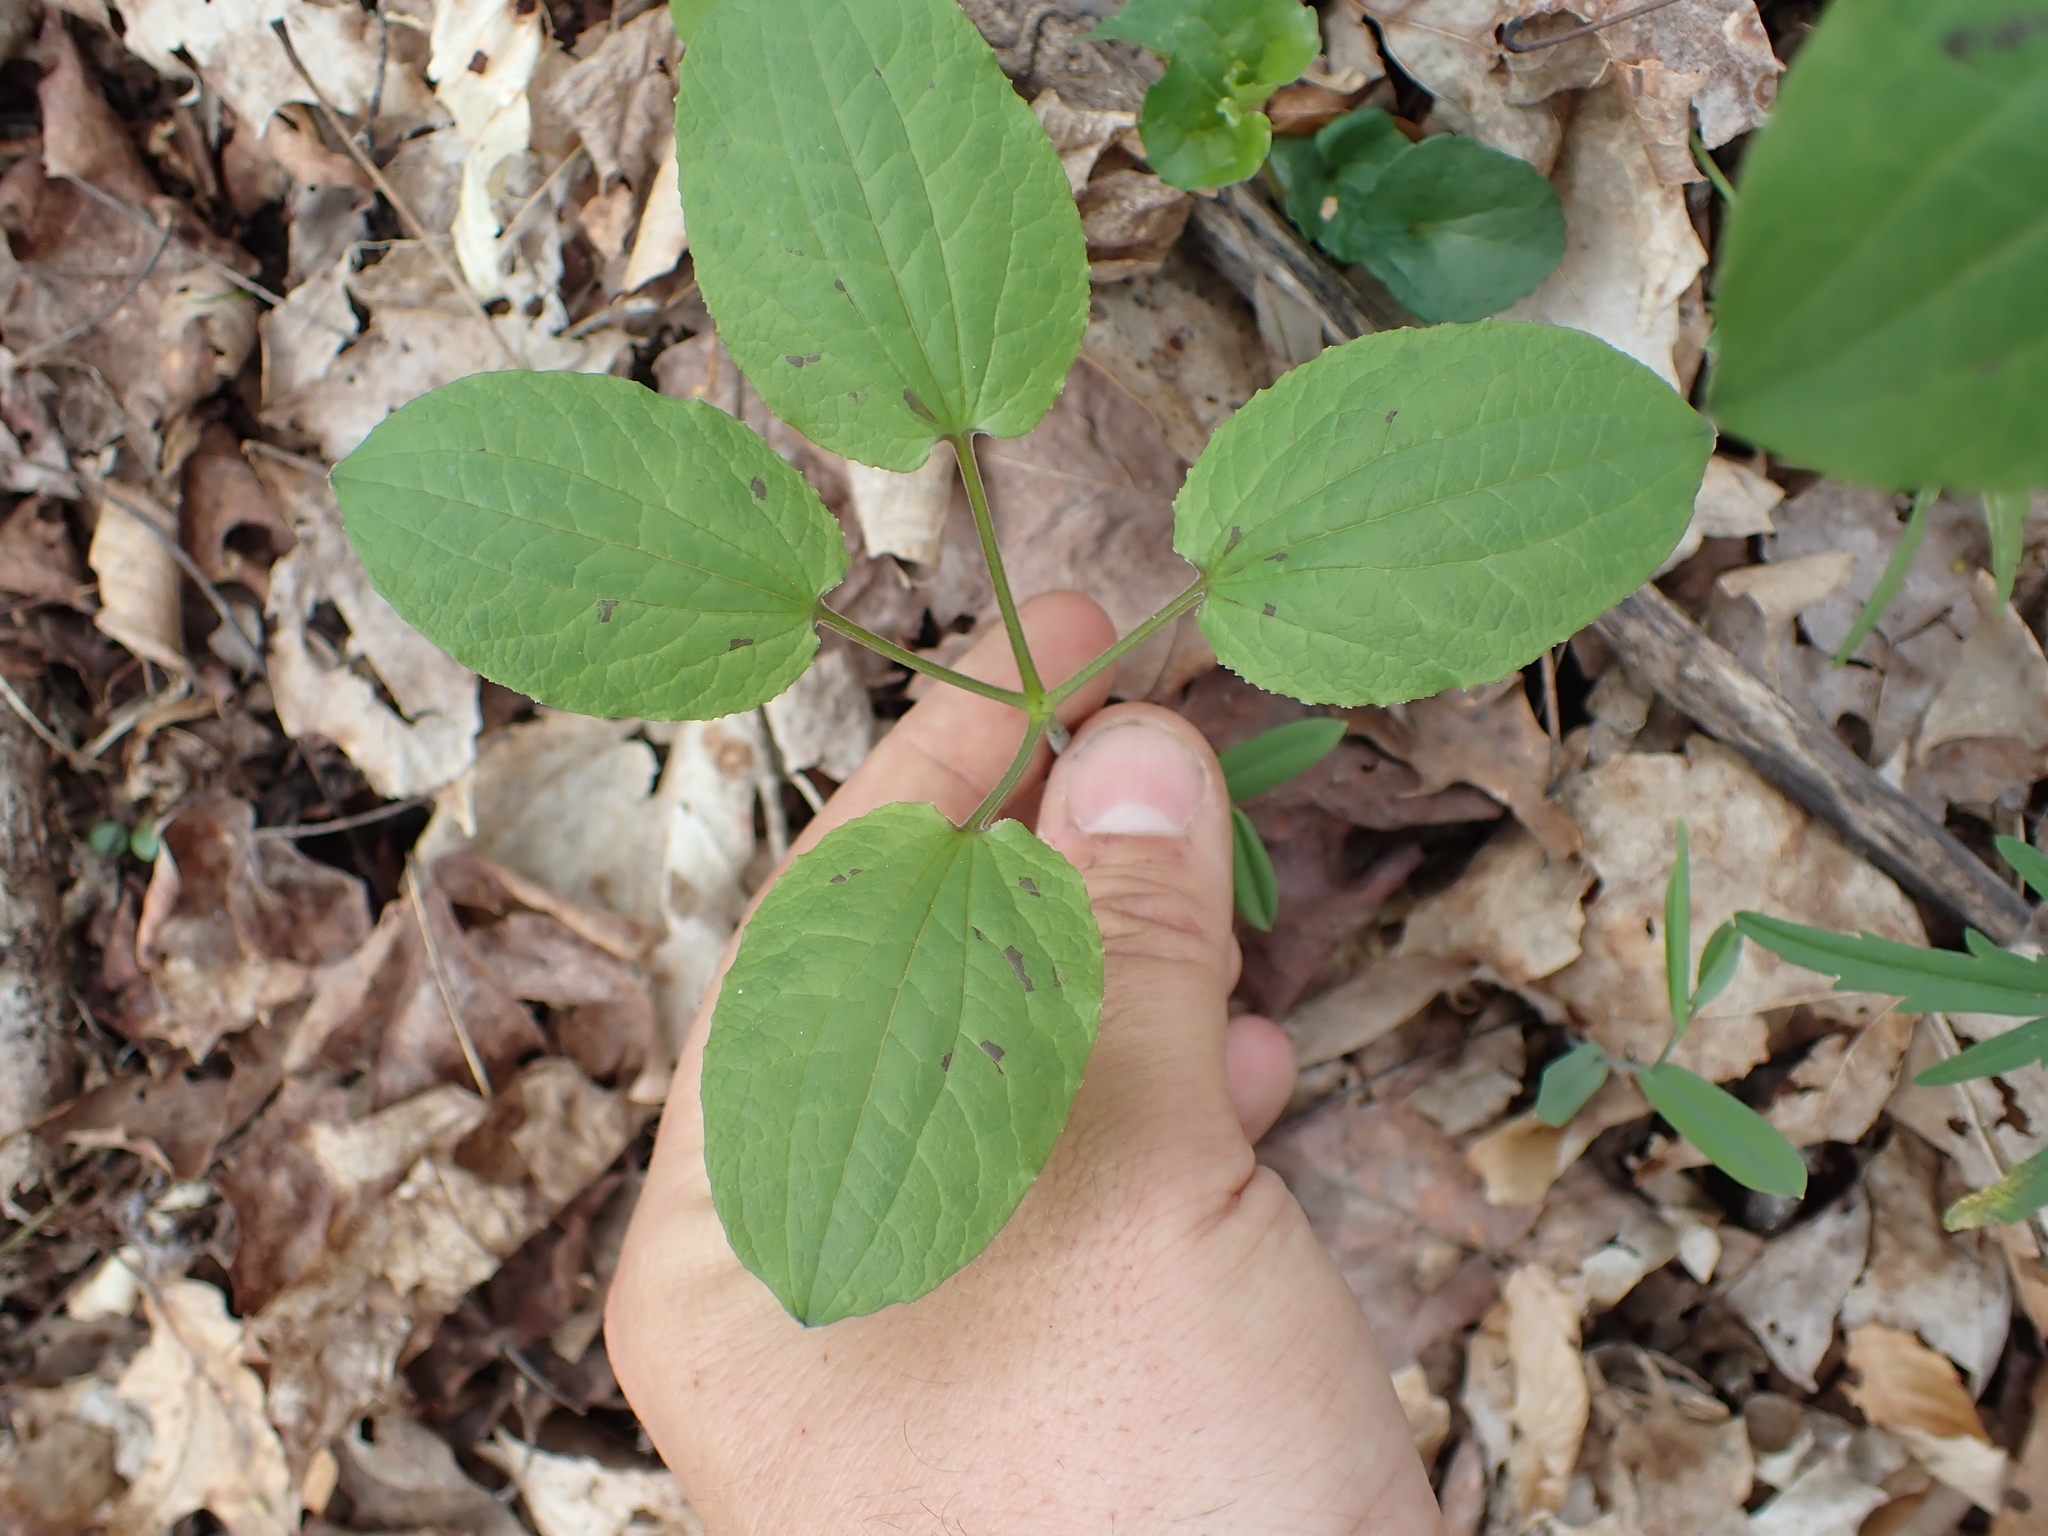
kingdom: Plantae
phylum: Tracheophyta
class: Liliopsida
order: Liliales
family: Smilacaceae
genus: Smilax
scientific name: Smilax ecirrhata
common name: Upright carrionflower
